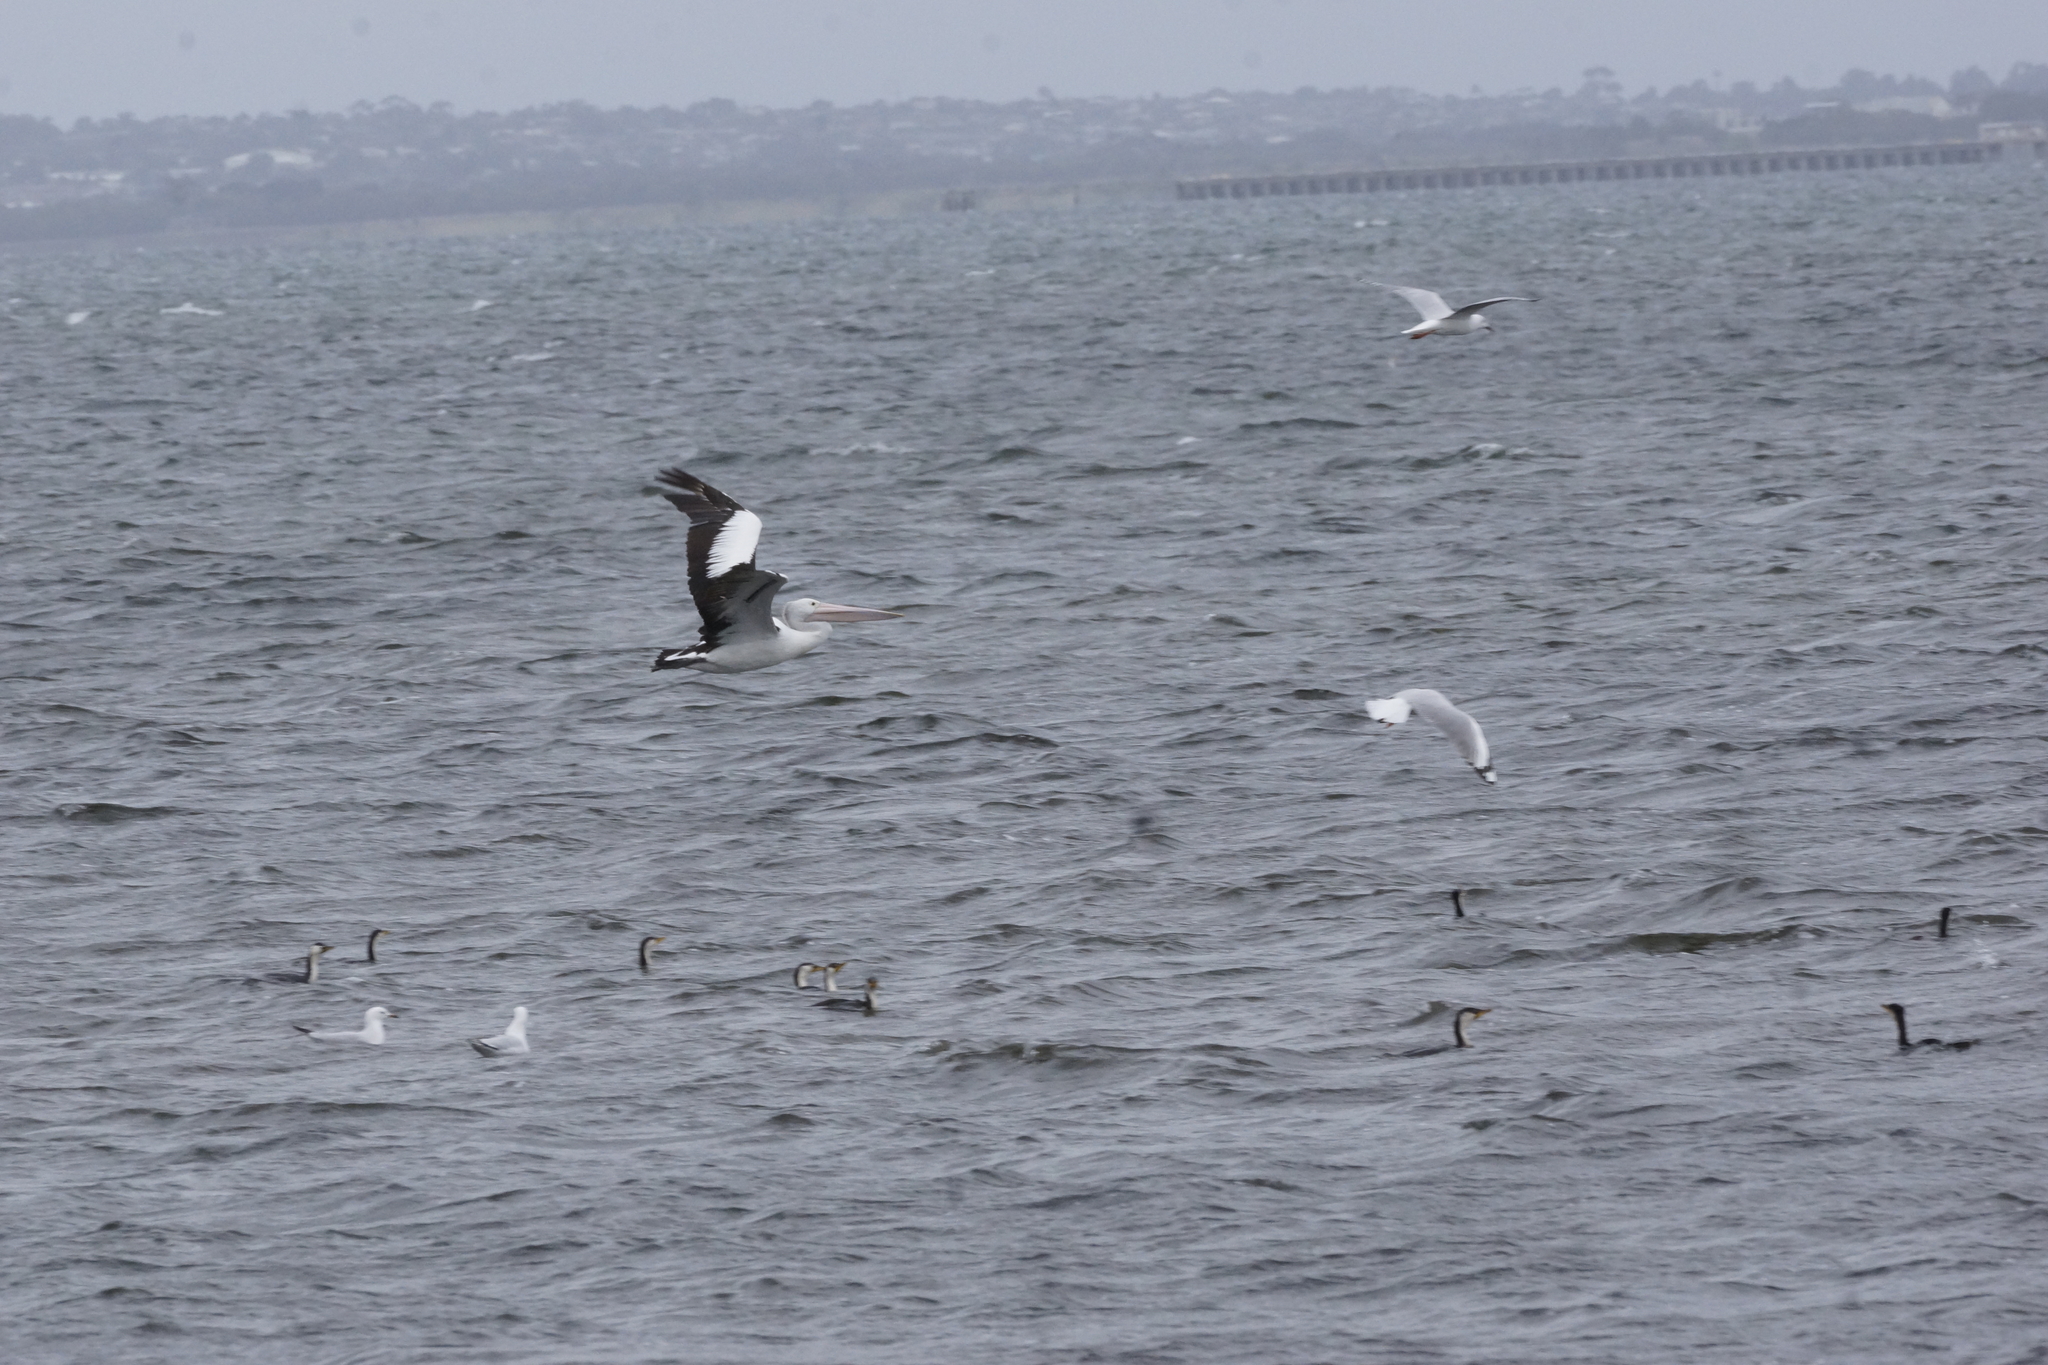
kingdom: Animalia
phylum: Chordata
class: Aves
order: Pelecaniformes
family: Pelecanidae
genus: Pelecanus
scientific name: Pelecanus conspicillatus
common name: Australian pelican
